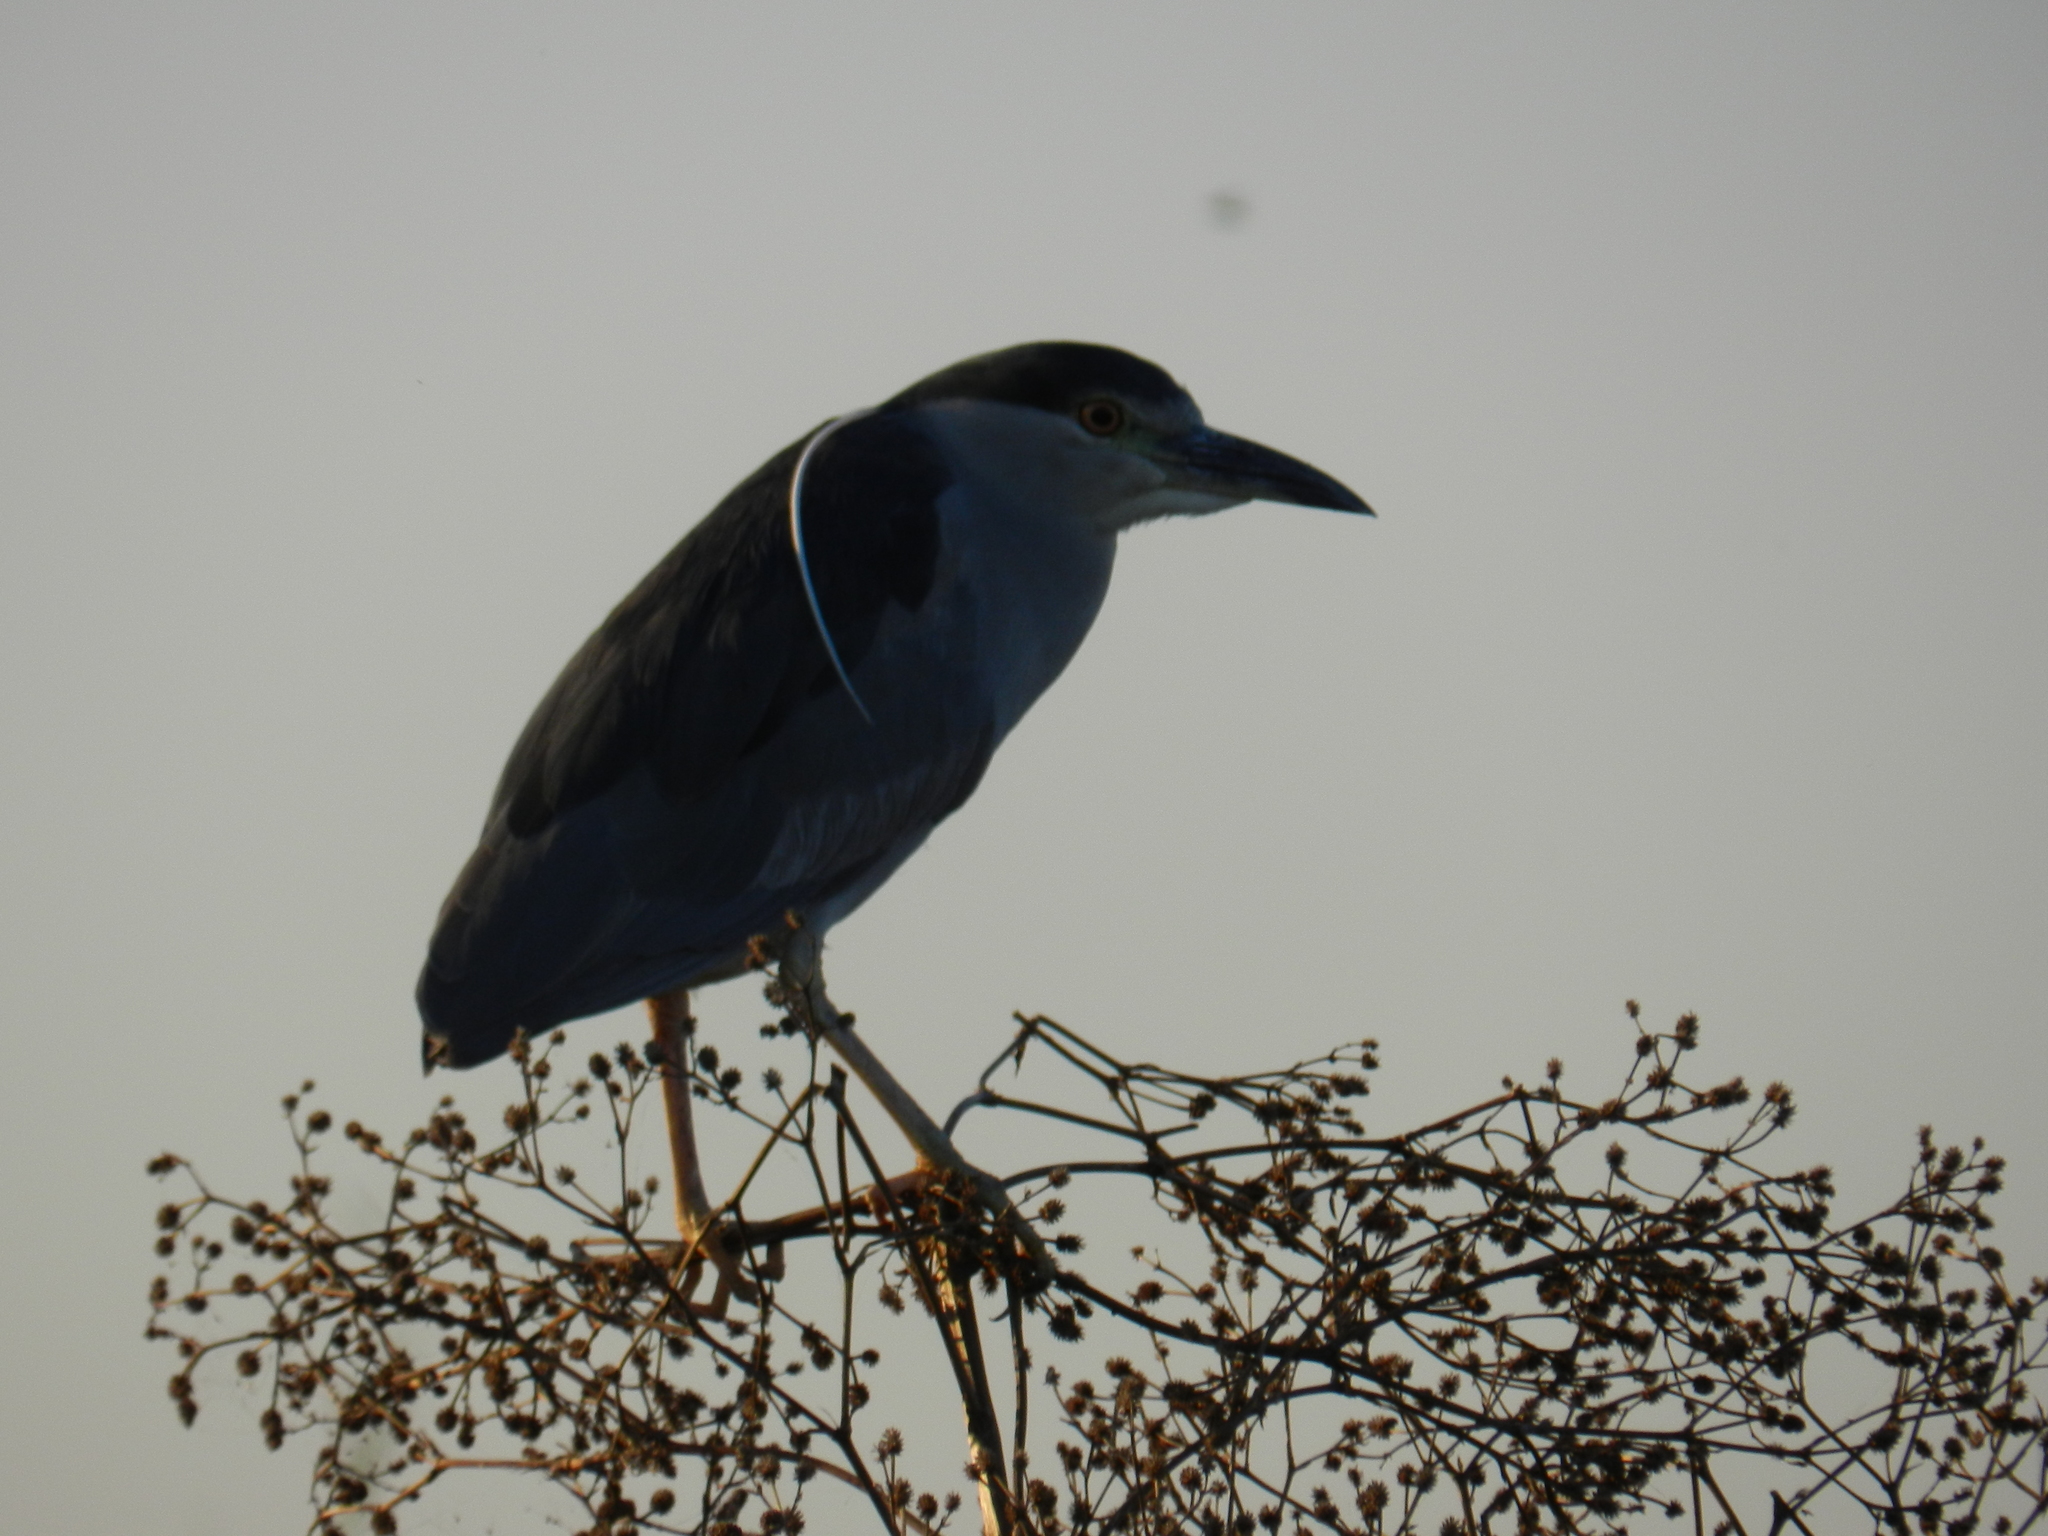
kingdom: Animalia
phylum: Chordata
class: Aves
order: Pelecaniformes
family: Ardeidae
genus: Nycticorax
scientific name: Nycticorax nycticorax
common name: Black-crowned night heron
